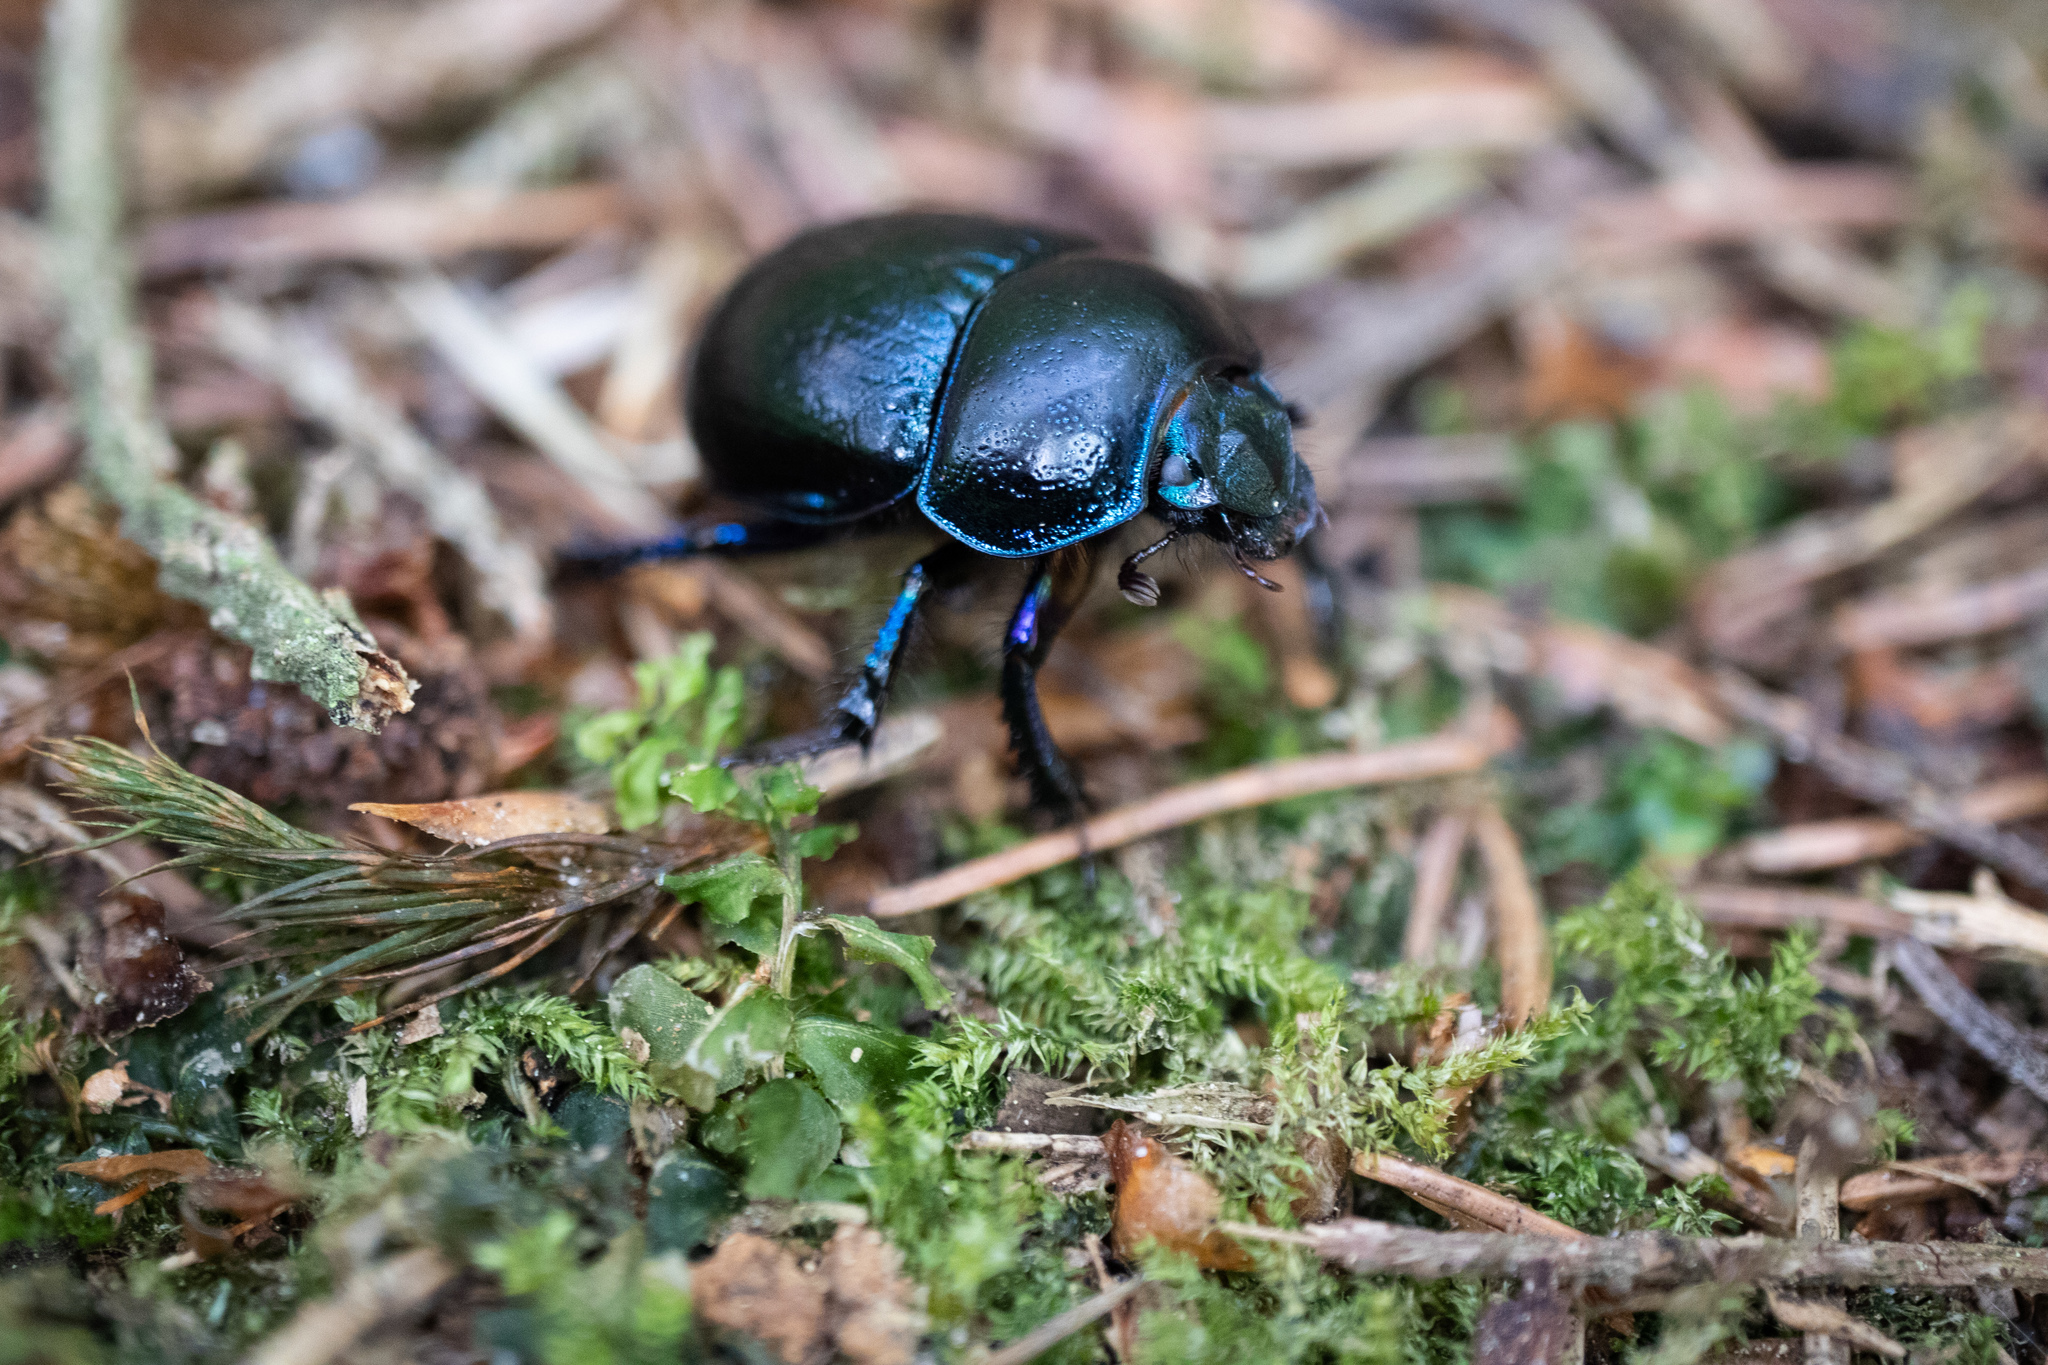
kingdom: Animalia
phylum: Arthropoda
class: Insecta
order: Coleoptera
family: Geotrupidae
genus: Anoplotrupes
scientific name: Anoplotrupes stercorosus
